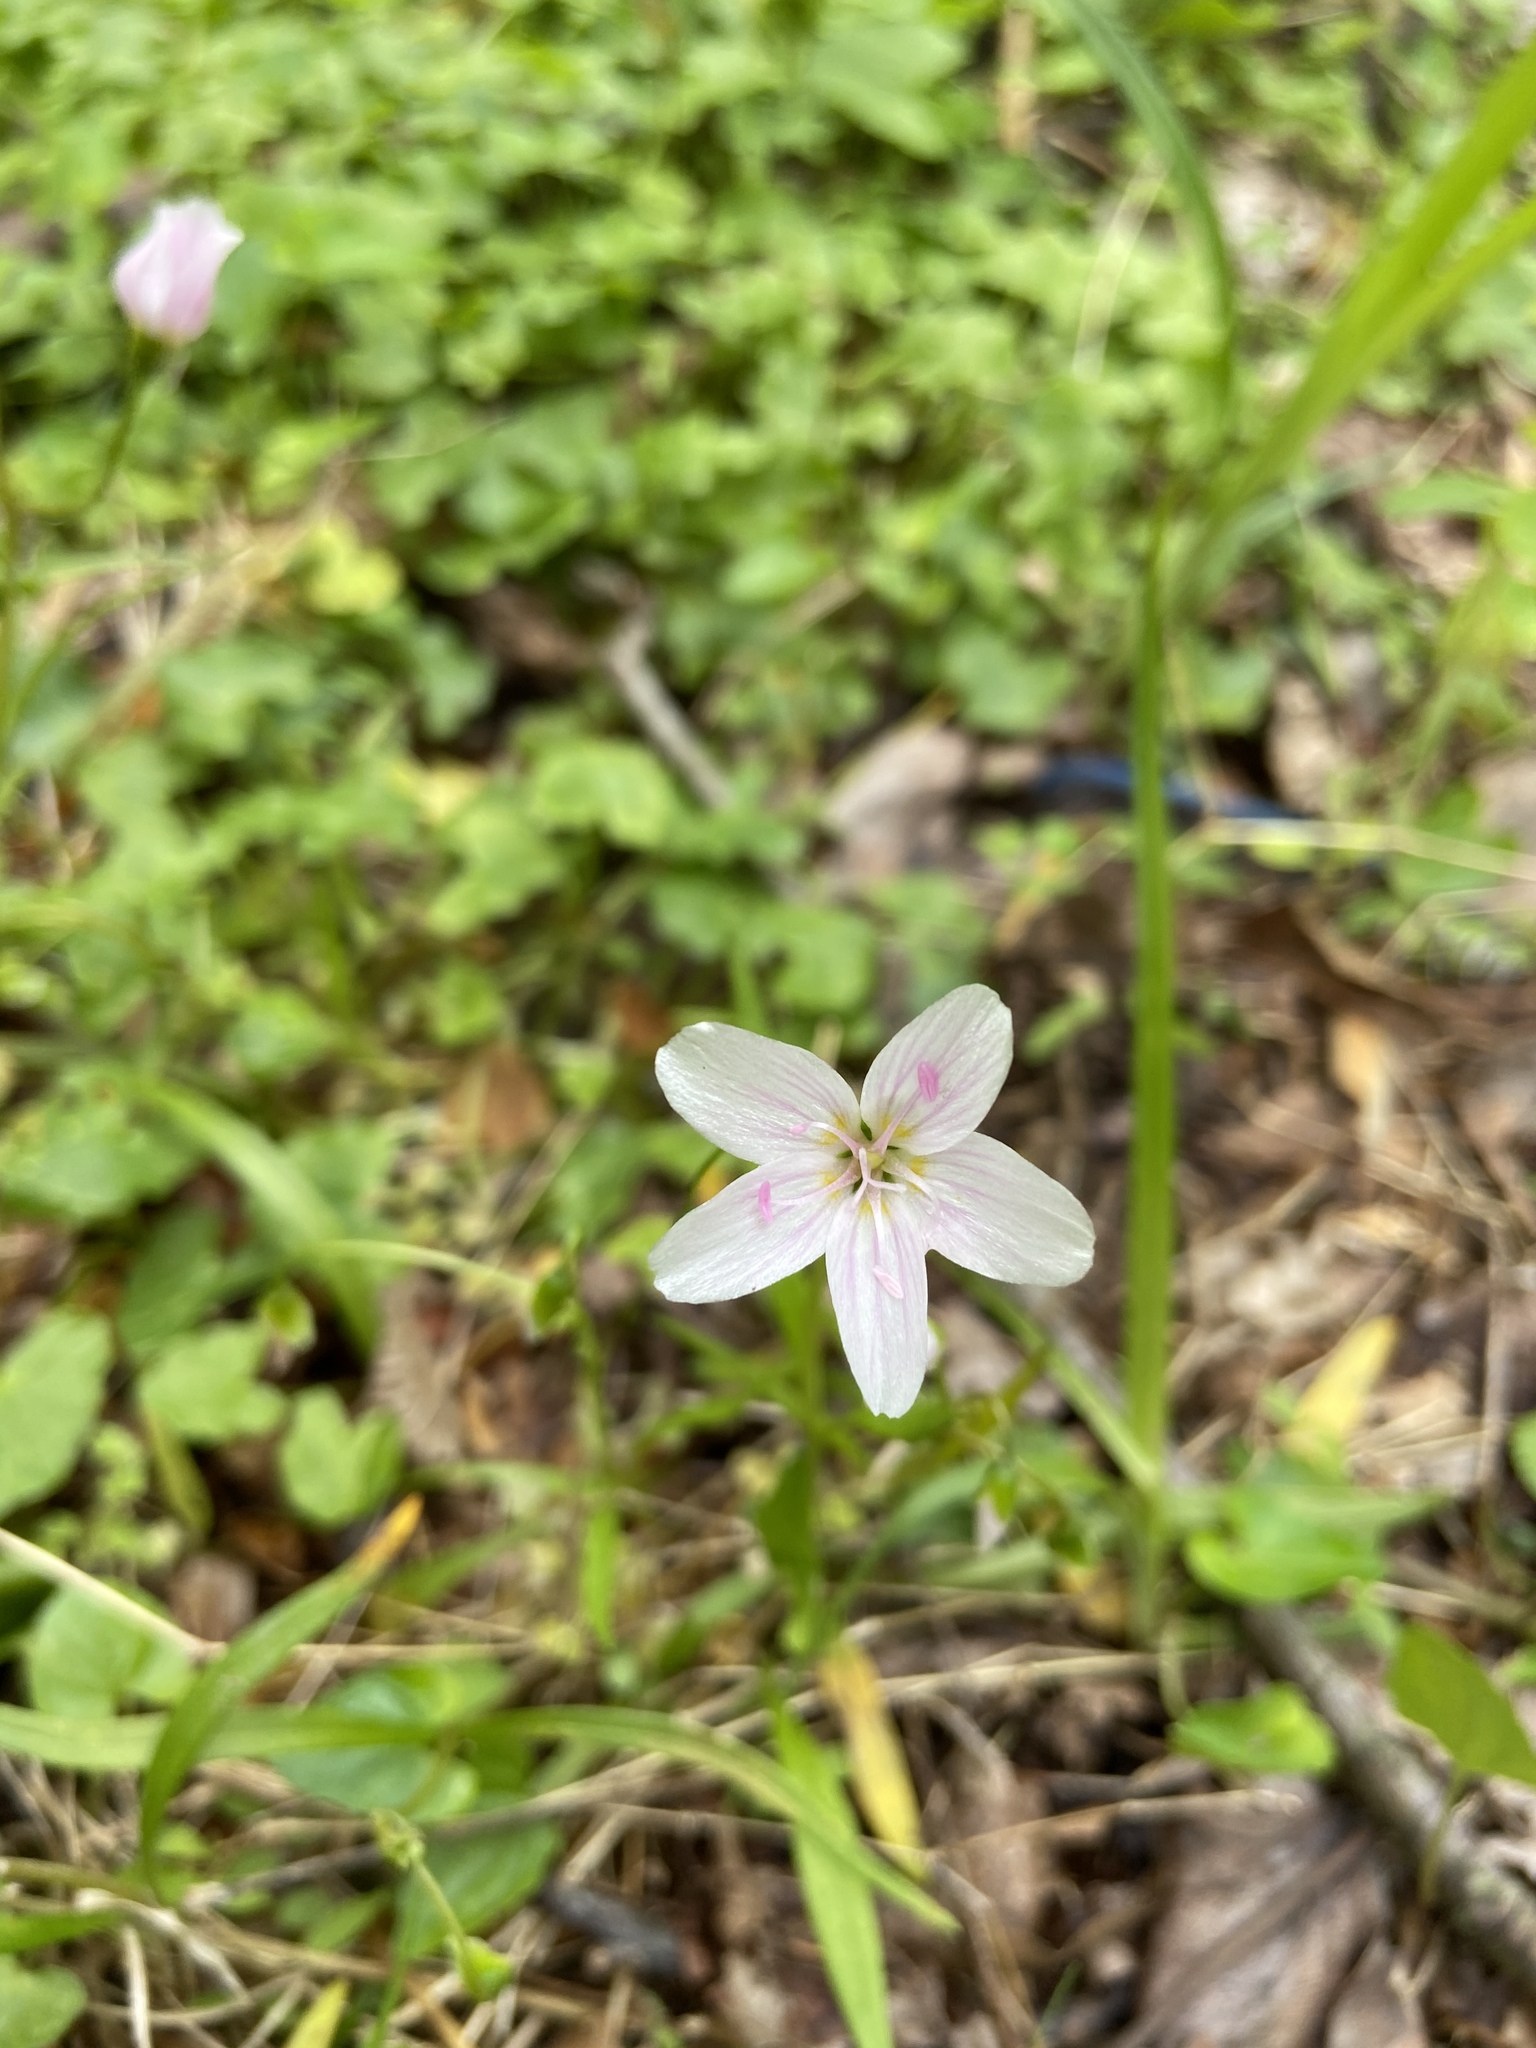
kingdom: Plantae
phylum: Tracheophyta
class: Magnoliopsida
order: Caryophyllales
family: Montiaceae
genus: Claytonia
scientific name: Claytonia virginica
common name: Virginia springbeauty
